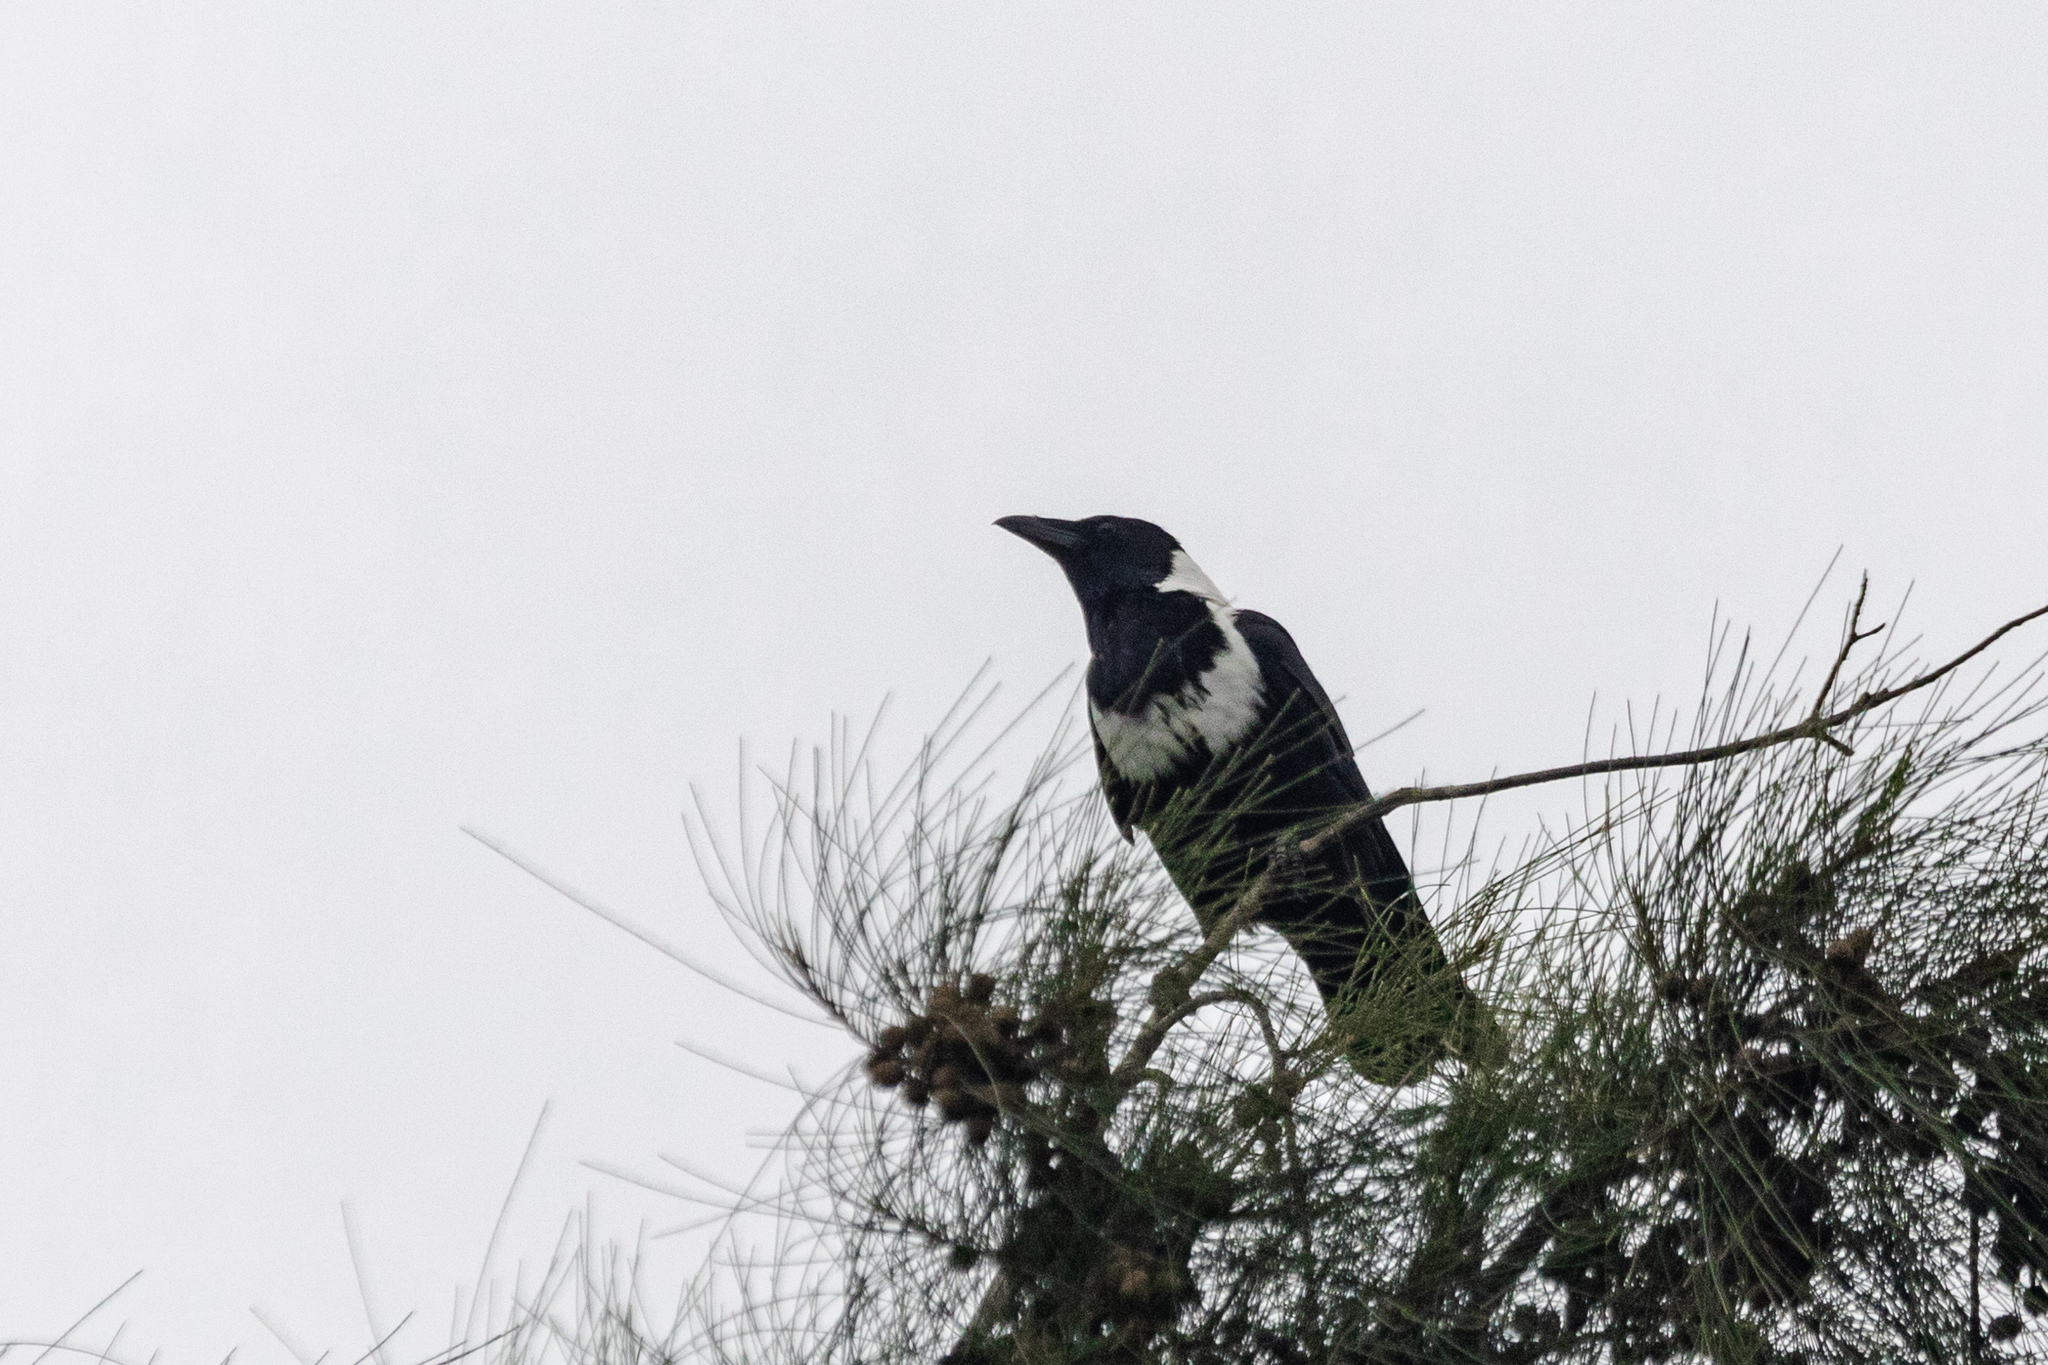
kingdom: Animalia
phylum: Chordata
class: Aves
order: Passeriformes
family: Corvidae
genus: Corvus
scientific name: Corvus pectoralis
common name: Collared crow
